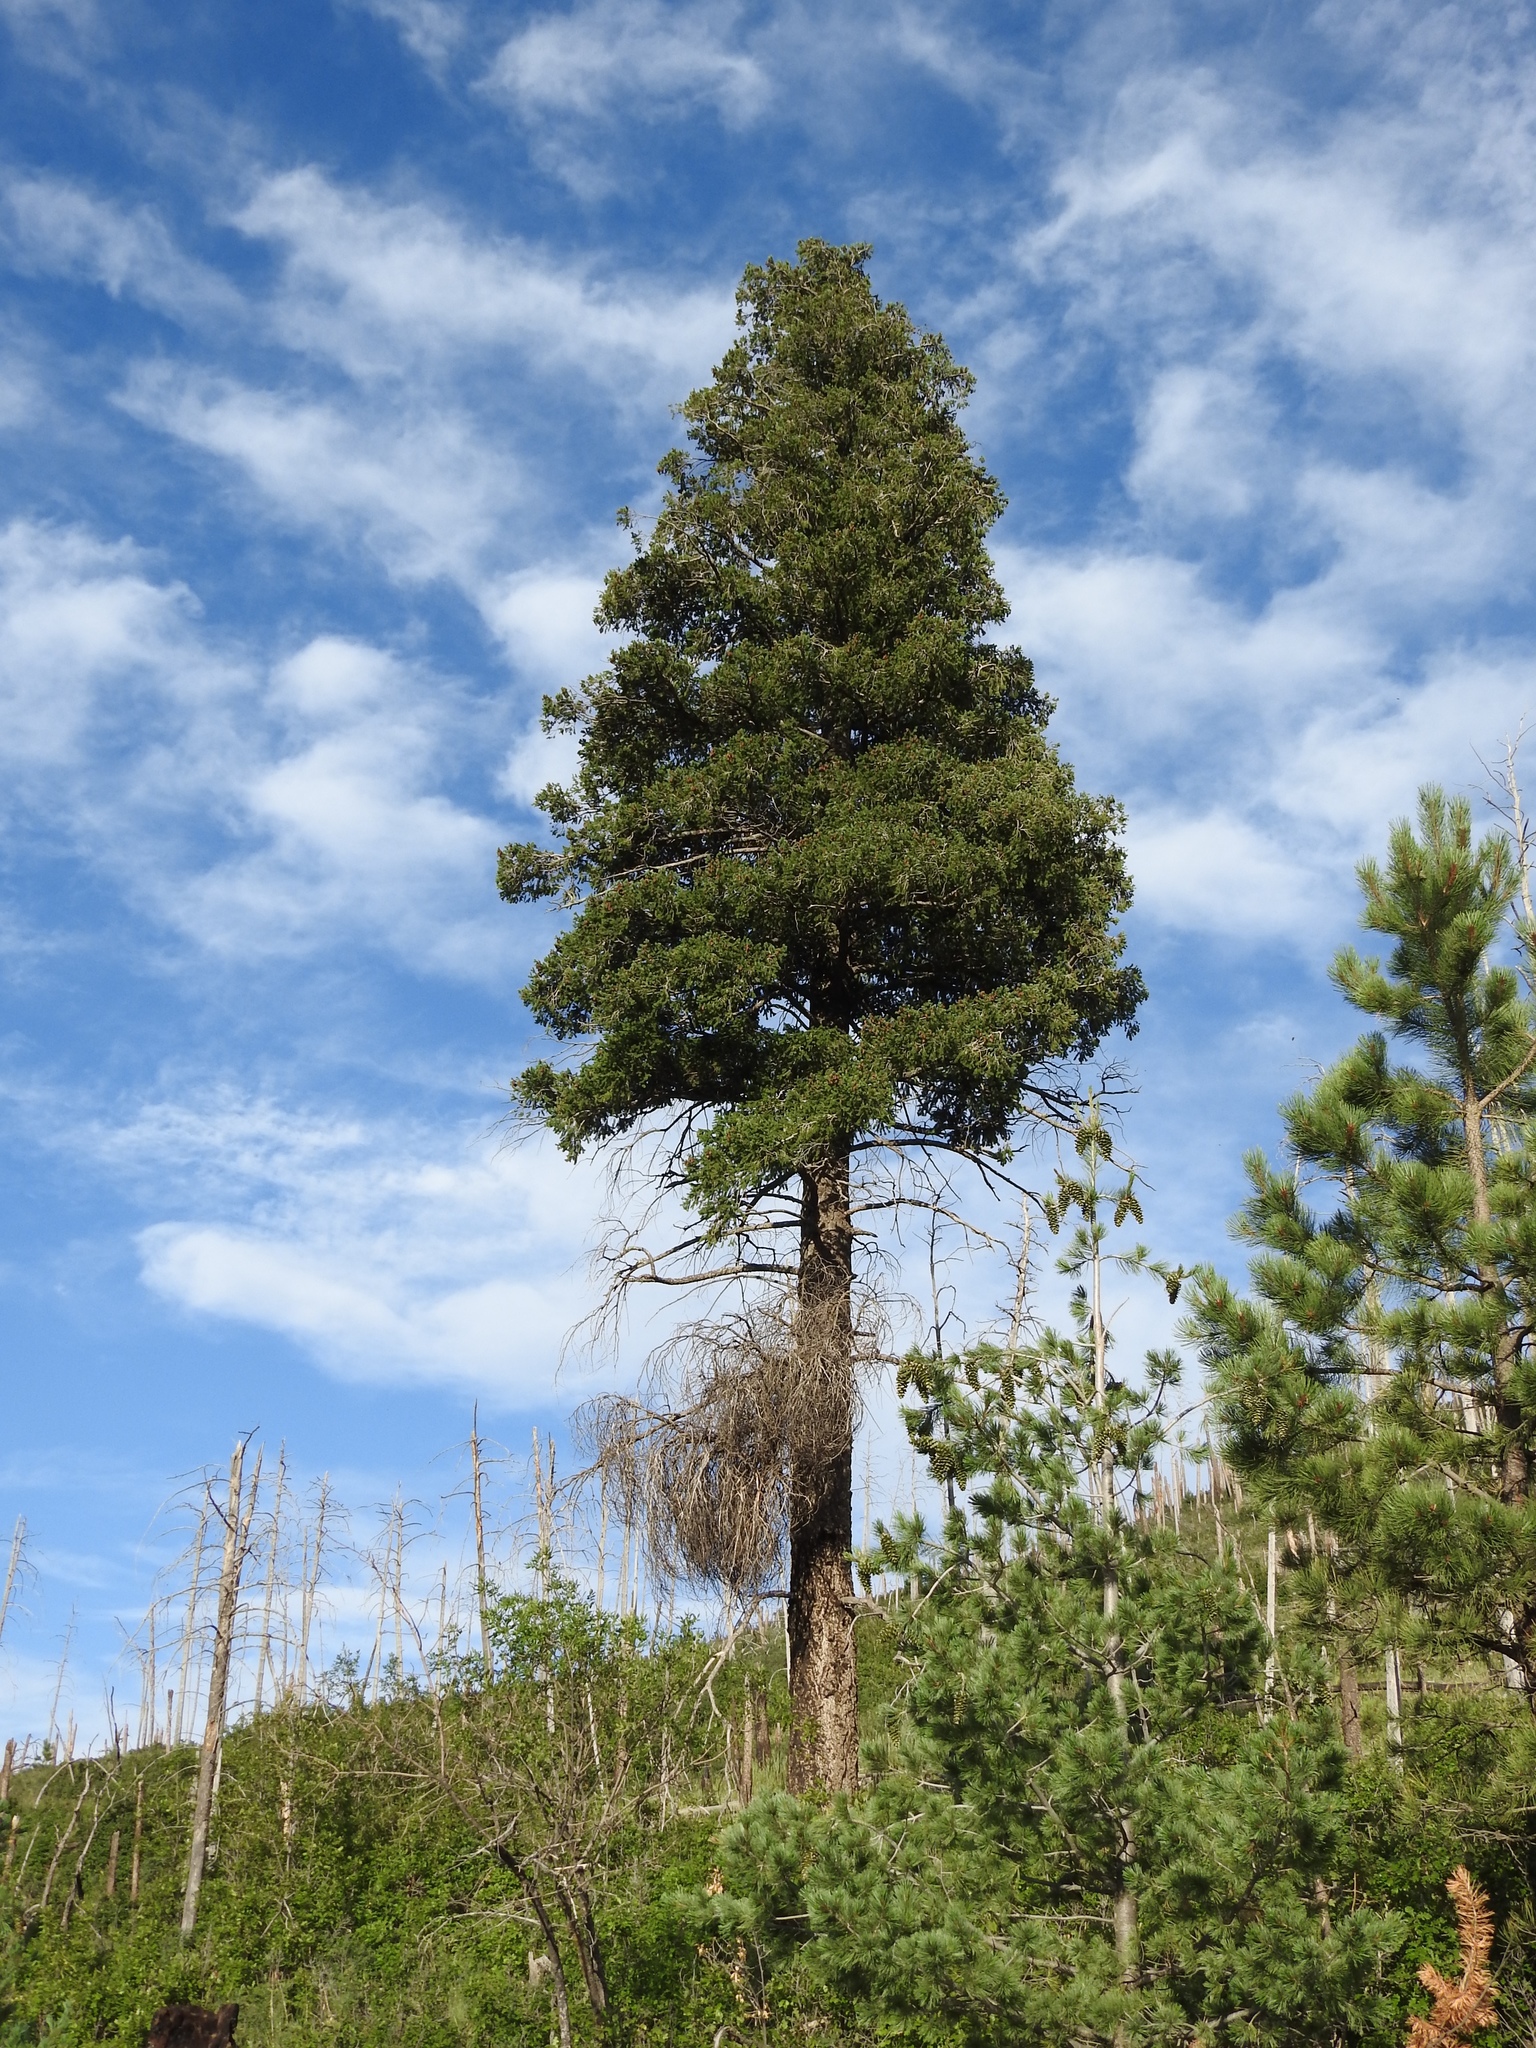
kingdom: Plantae
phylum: Tracheophyta
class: Pinopsida
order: Pinales
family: Pinaceae
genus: Pseudotsuga
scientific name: Pseudotsuga menziesii
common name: Douglas fir
